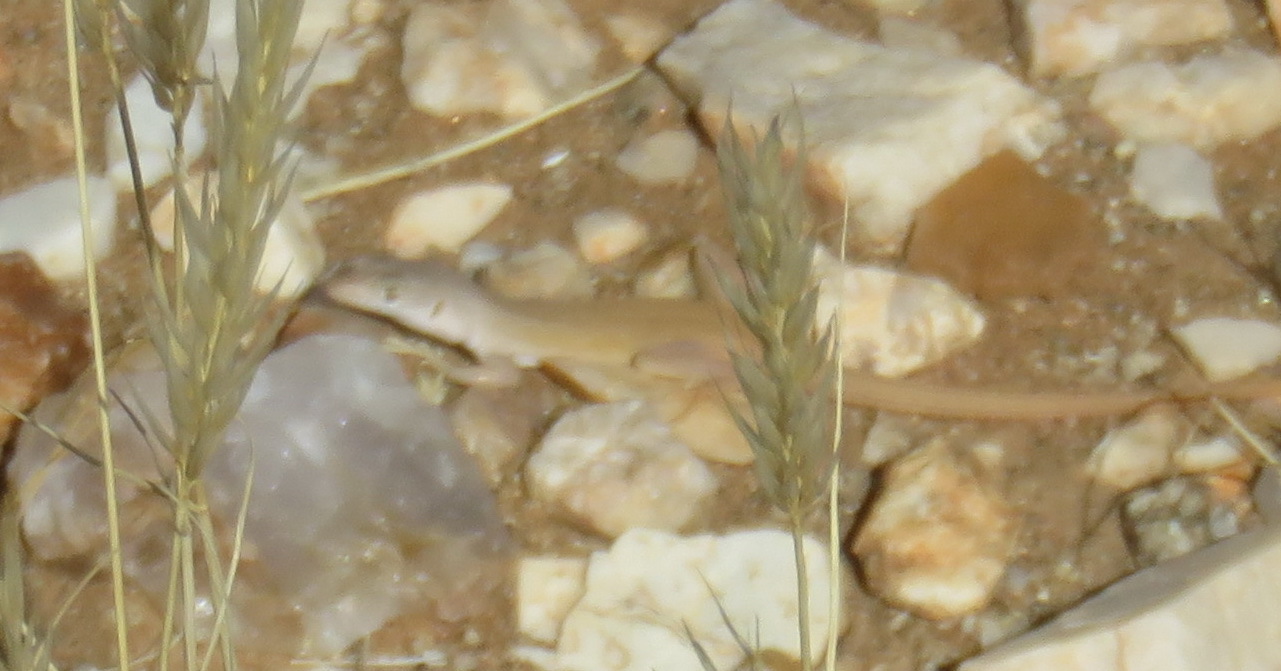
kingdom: Animalia
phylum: Chordata
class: Squamata
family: Lacertidae
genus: Pedioplanis
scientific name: Pedioplanis inornata
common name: Plain sand lizard
